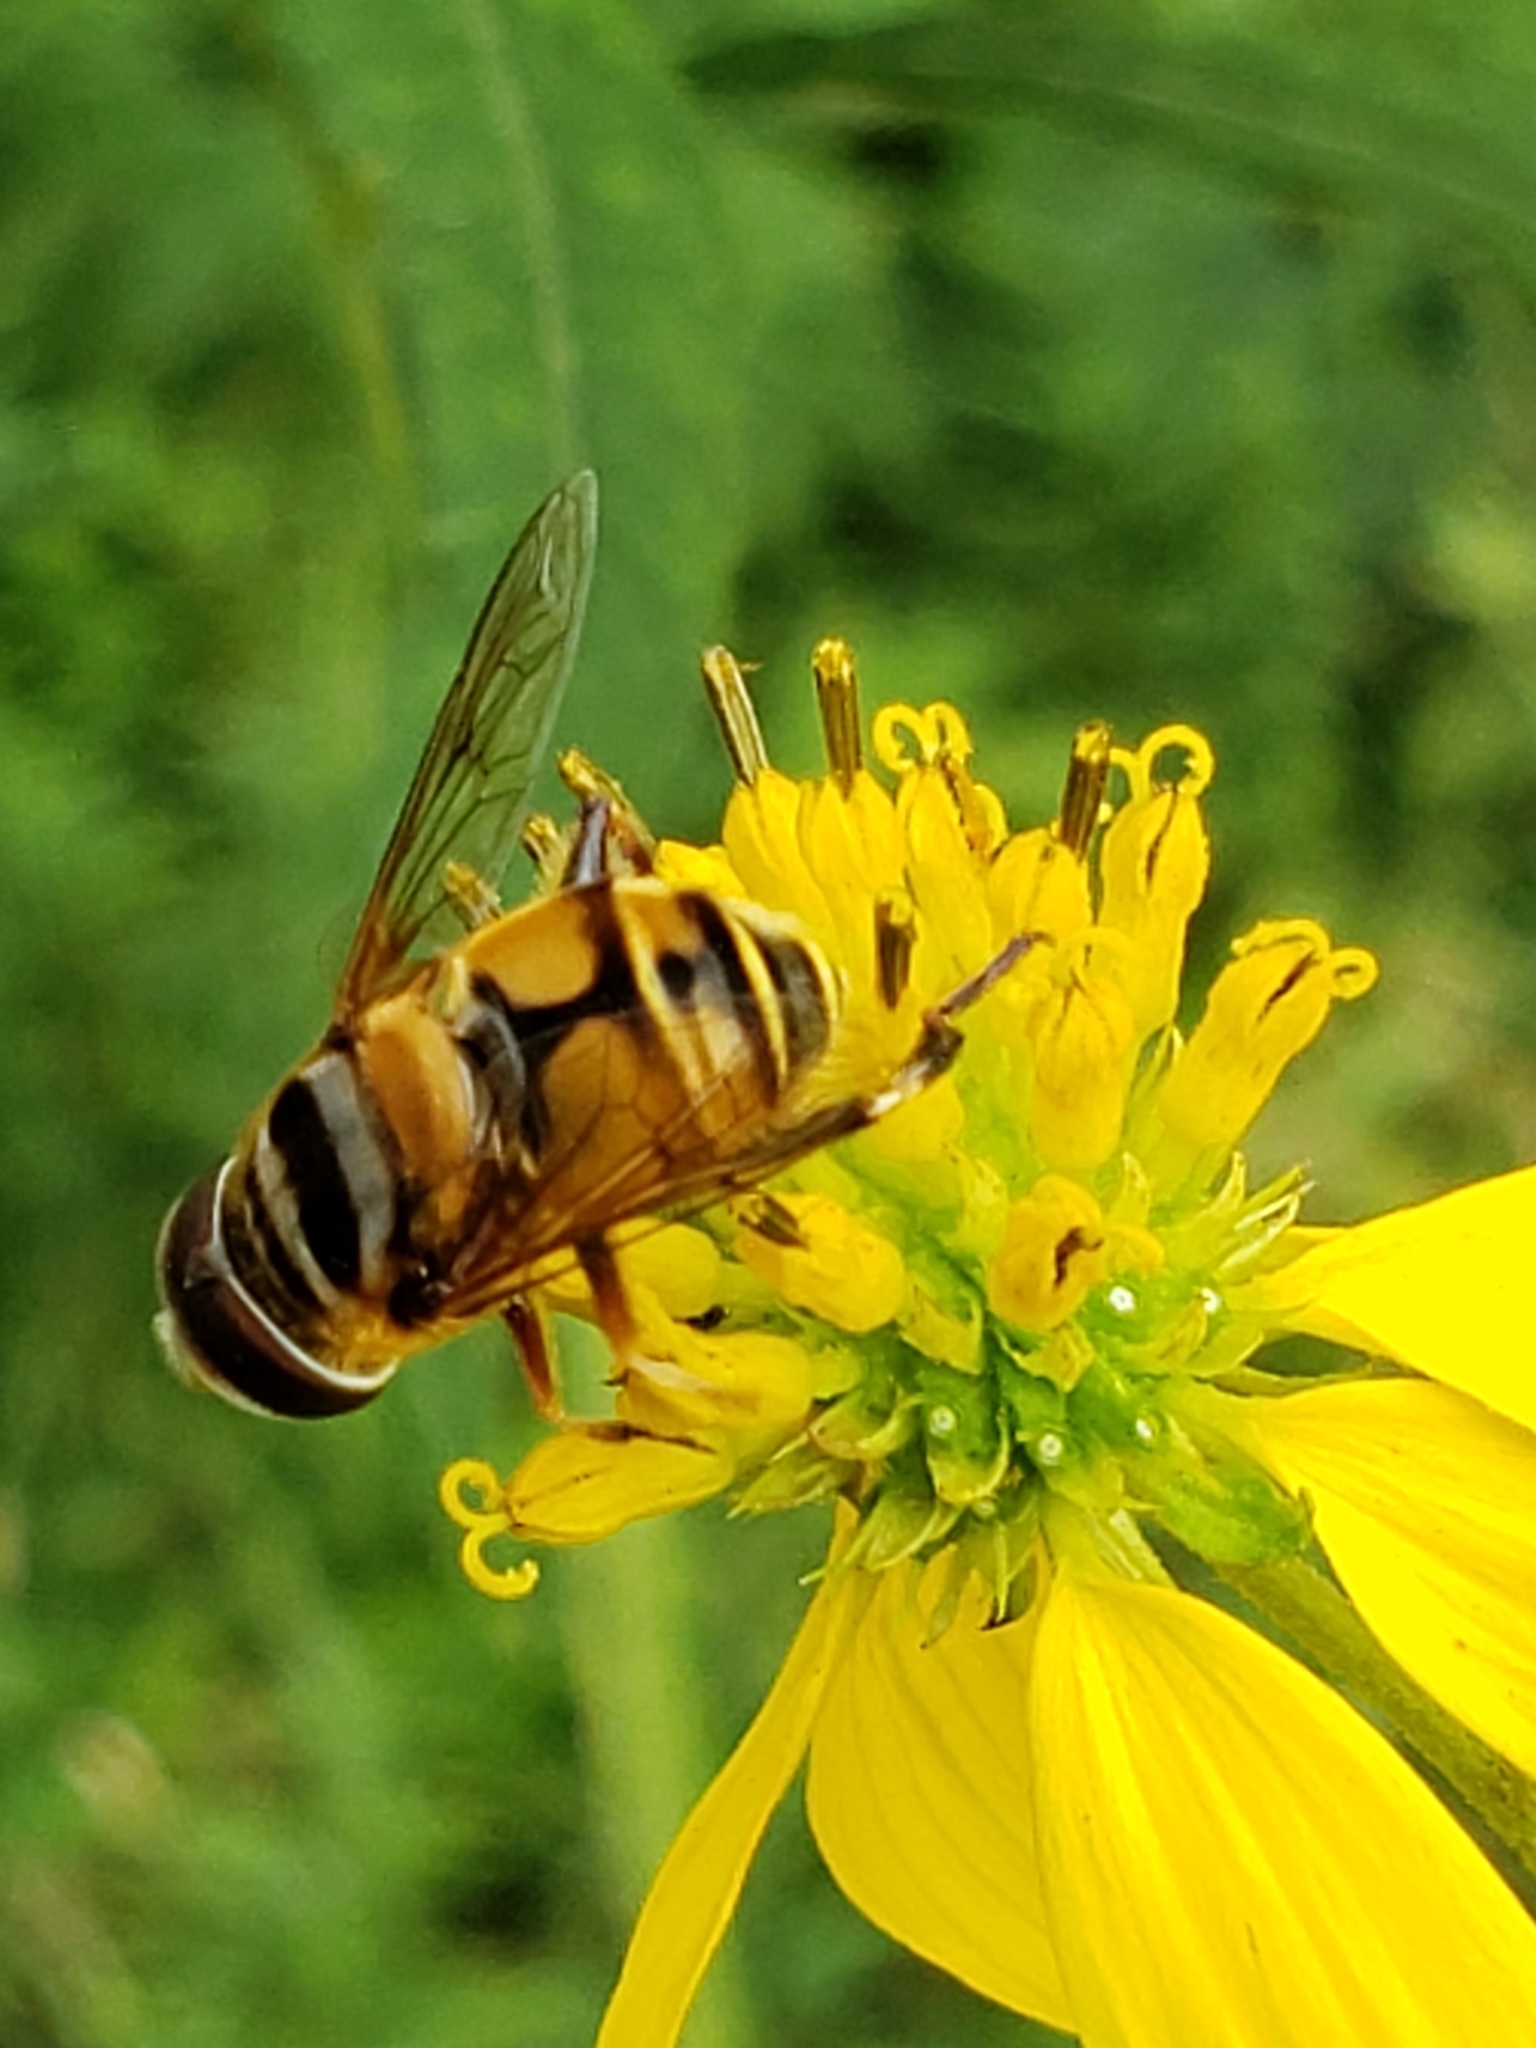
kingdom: Animalia
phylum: Arthropoda
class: Insecta
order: Diptera
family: Syrphidae
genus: Palpada
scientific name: Palpada vinetorum
